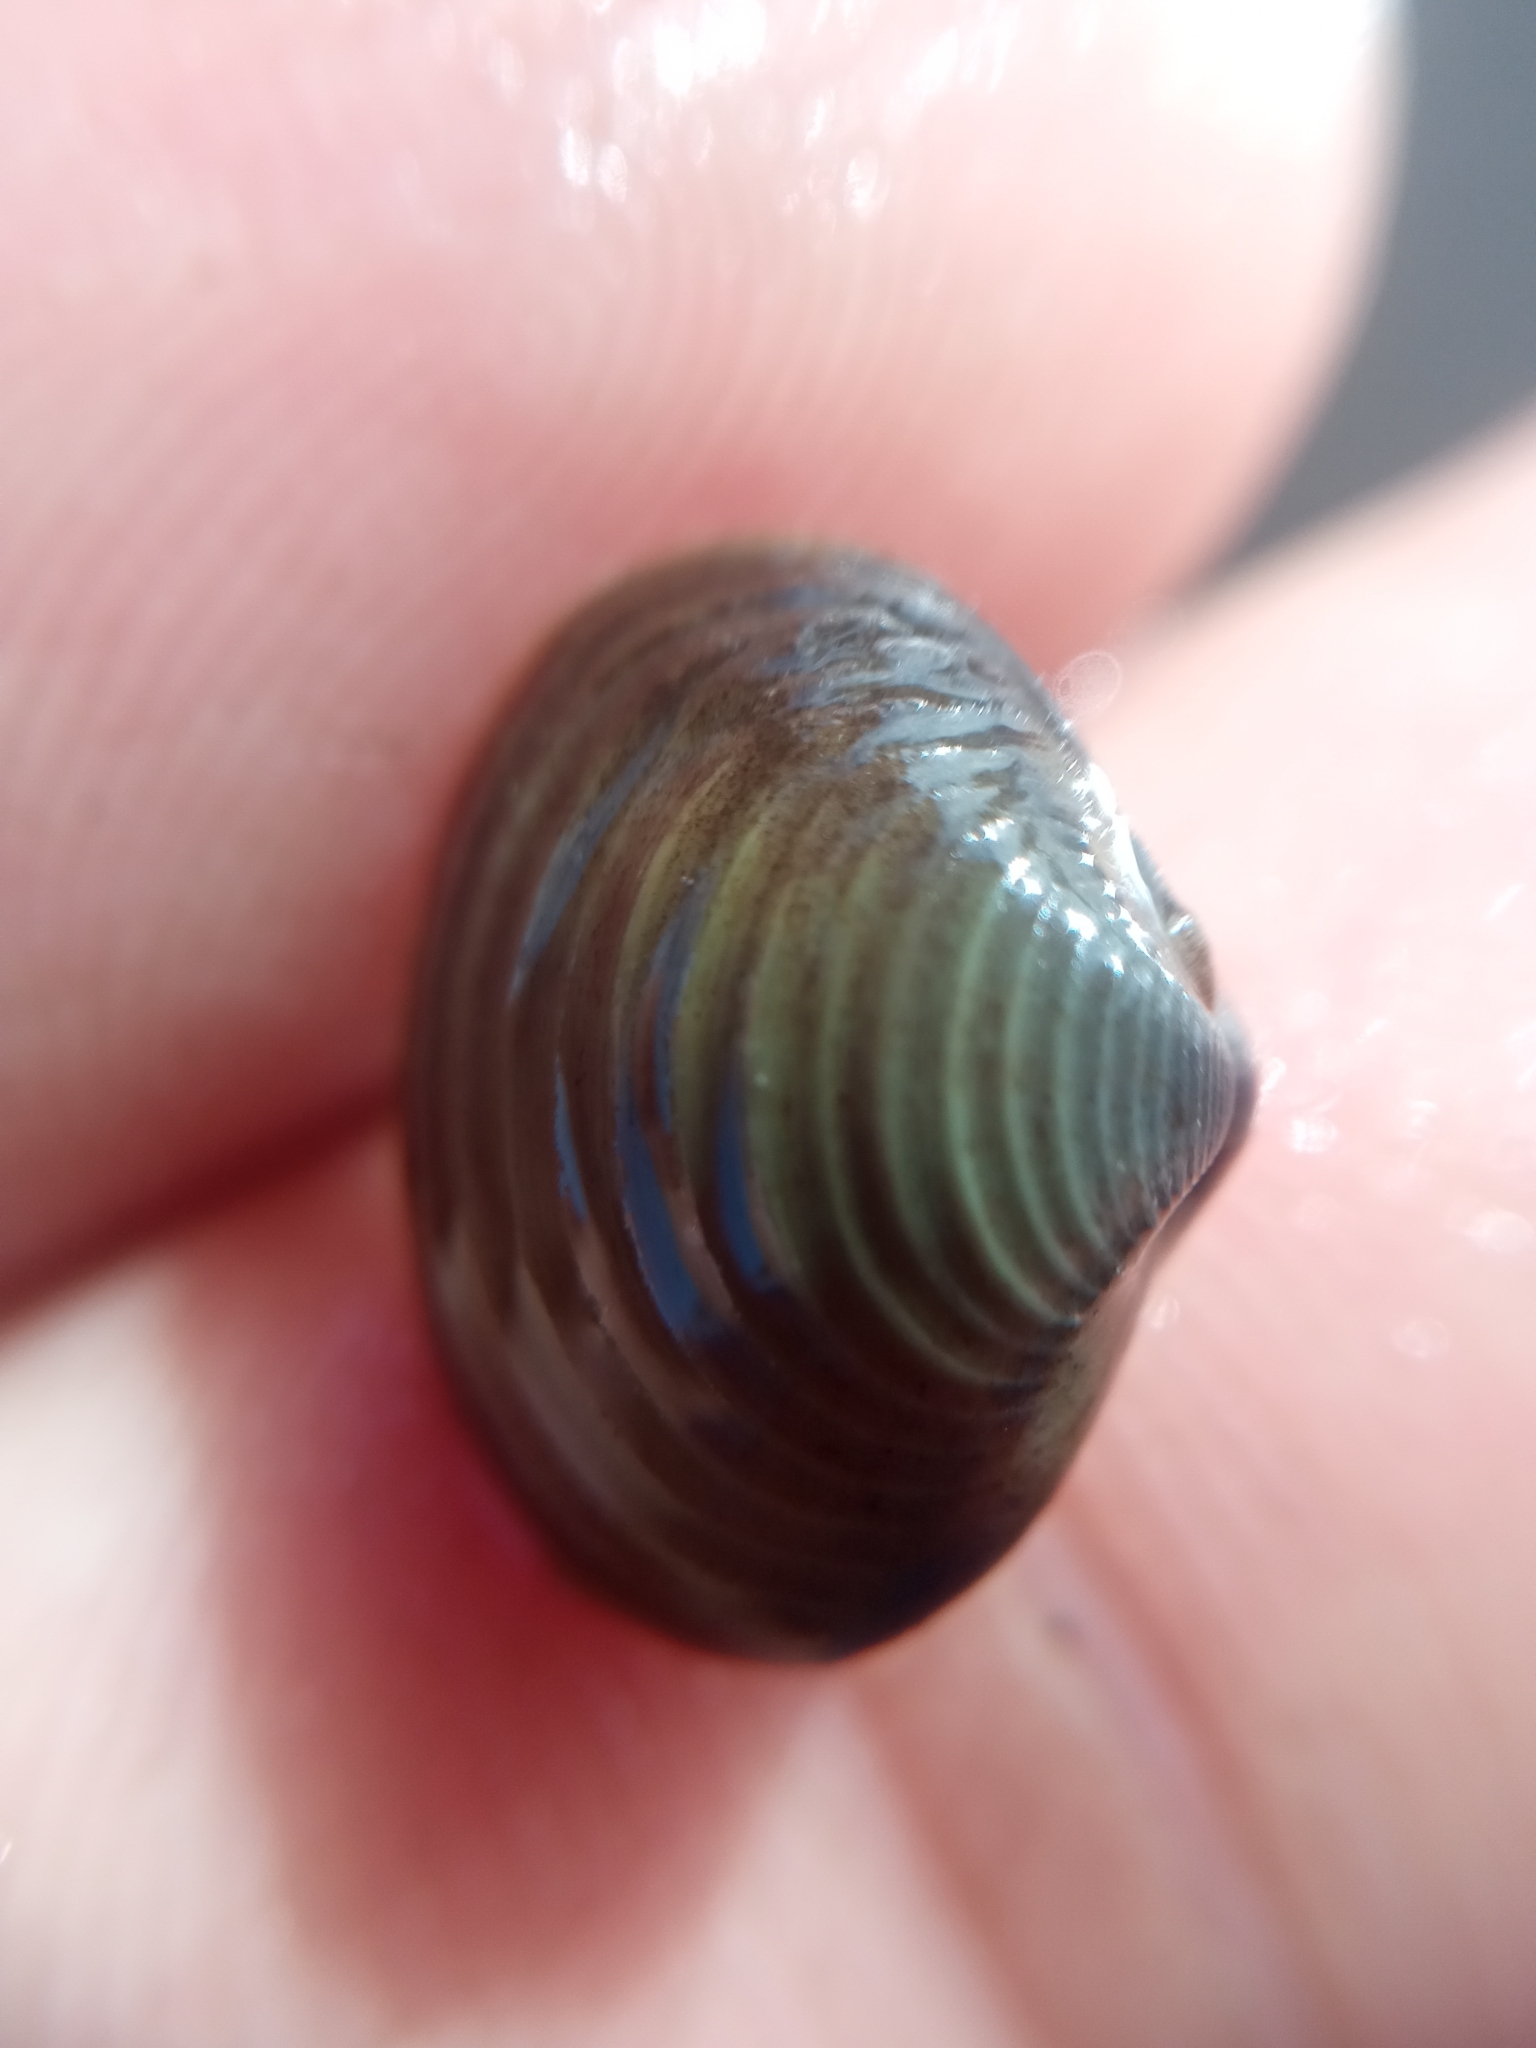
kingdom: Animalia
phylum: Mollusca
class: Bivalvia
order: Venerida
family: Cyrenidae
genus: Corbicula
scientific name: Corbicula largillierti
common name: Purple asian clam
